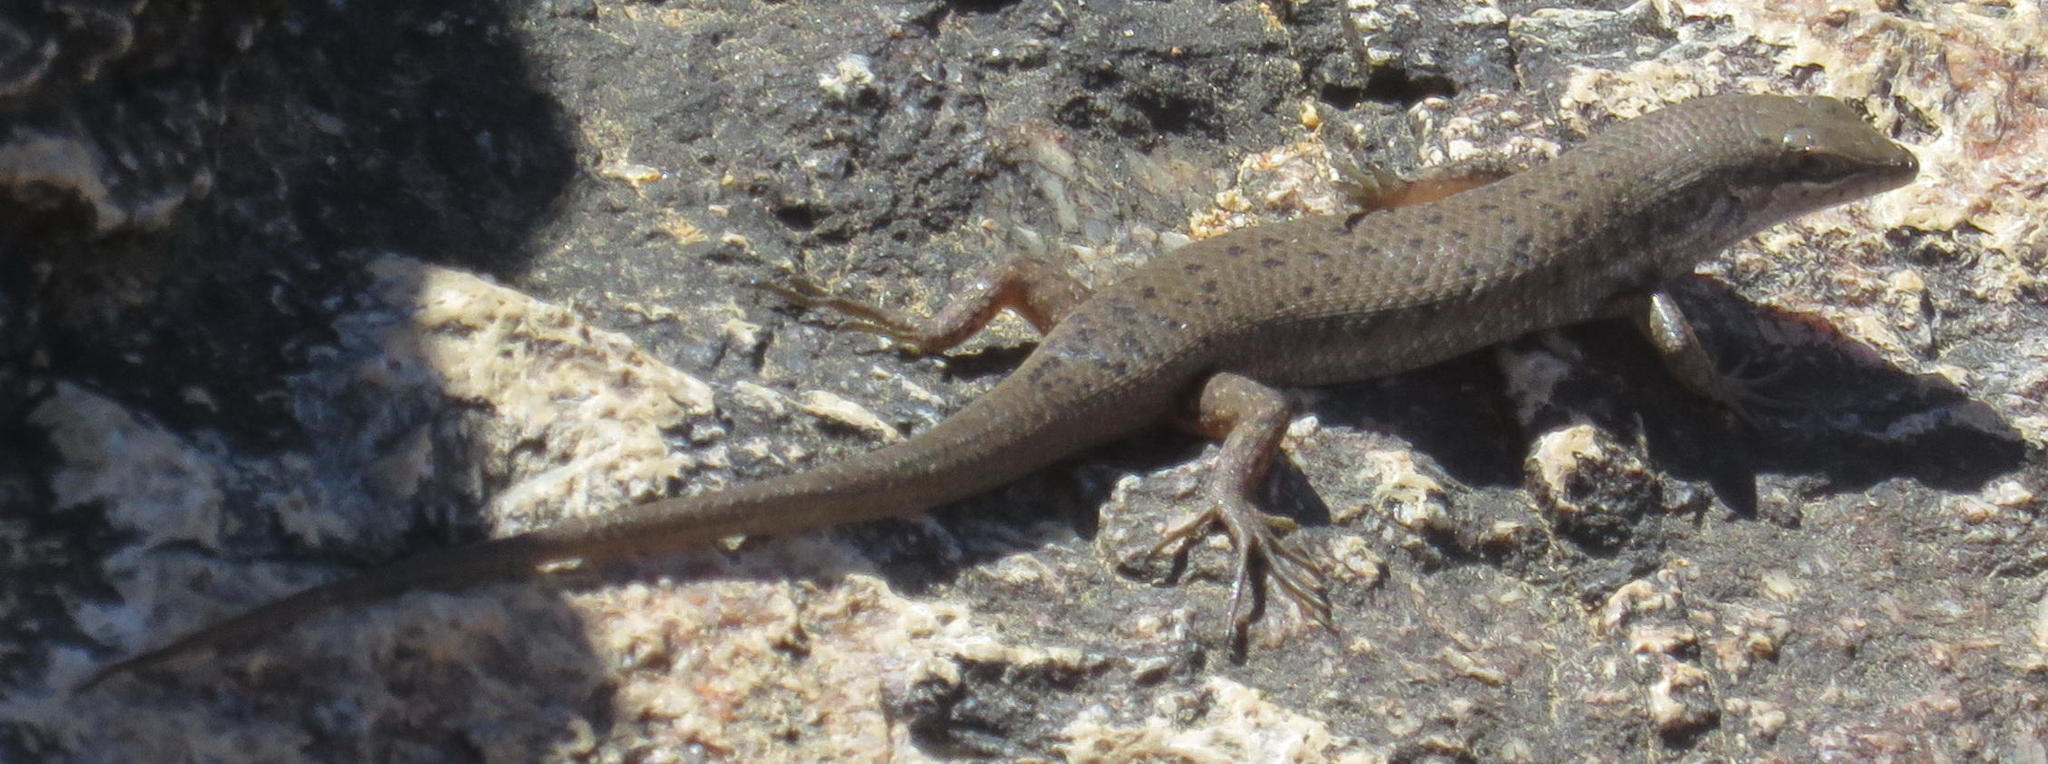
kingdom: Animalia
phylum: Chordata
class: Squamata
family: Scincidae
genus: Trachylepis
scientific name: Trachylepis variegata
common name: Variegated skink
